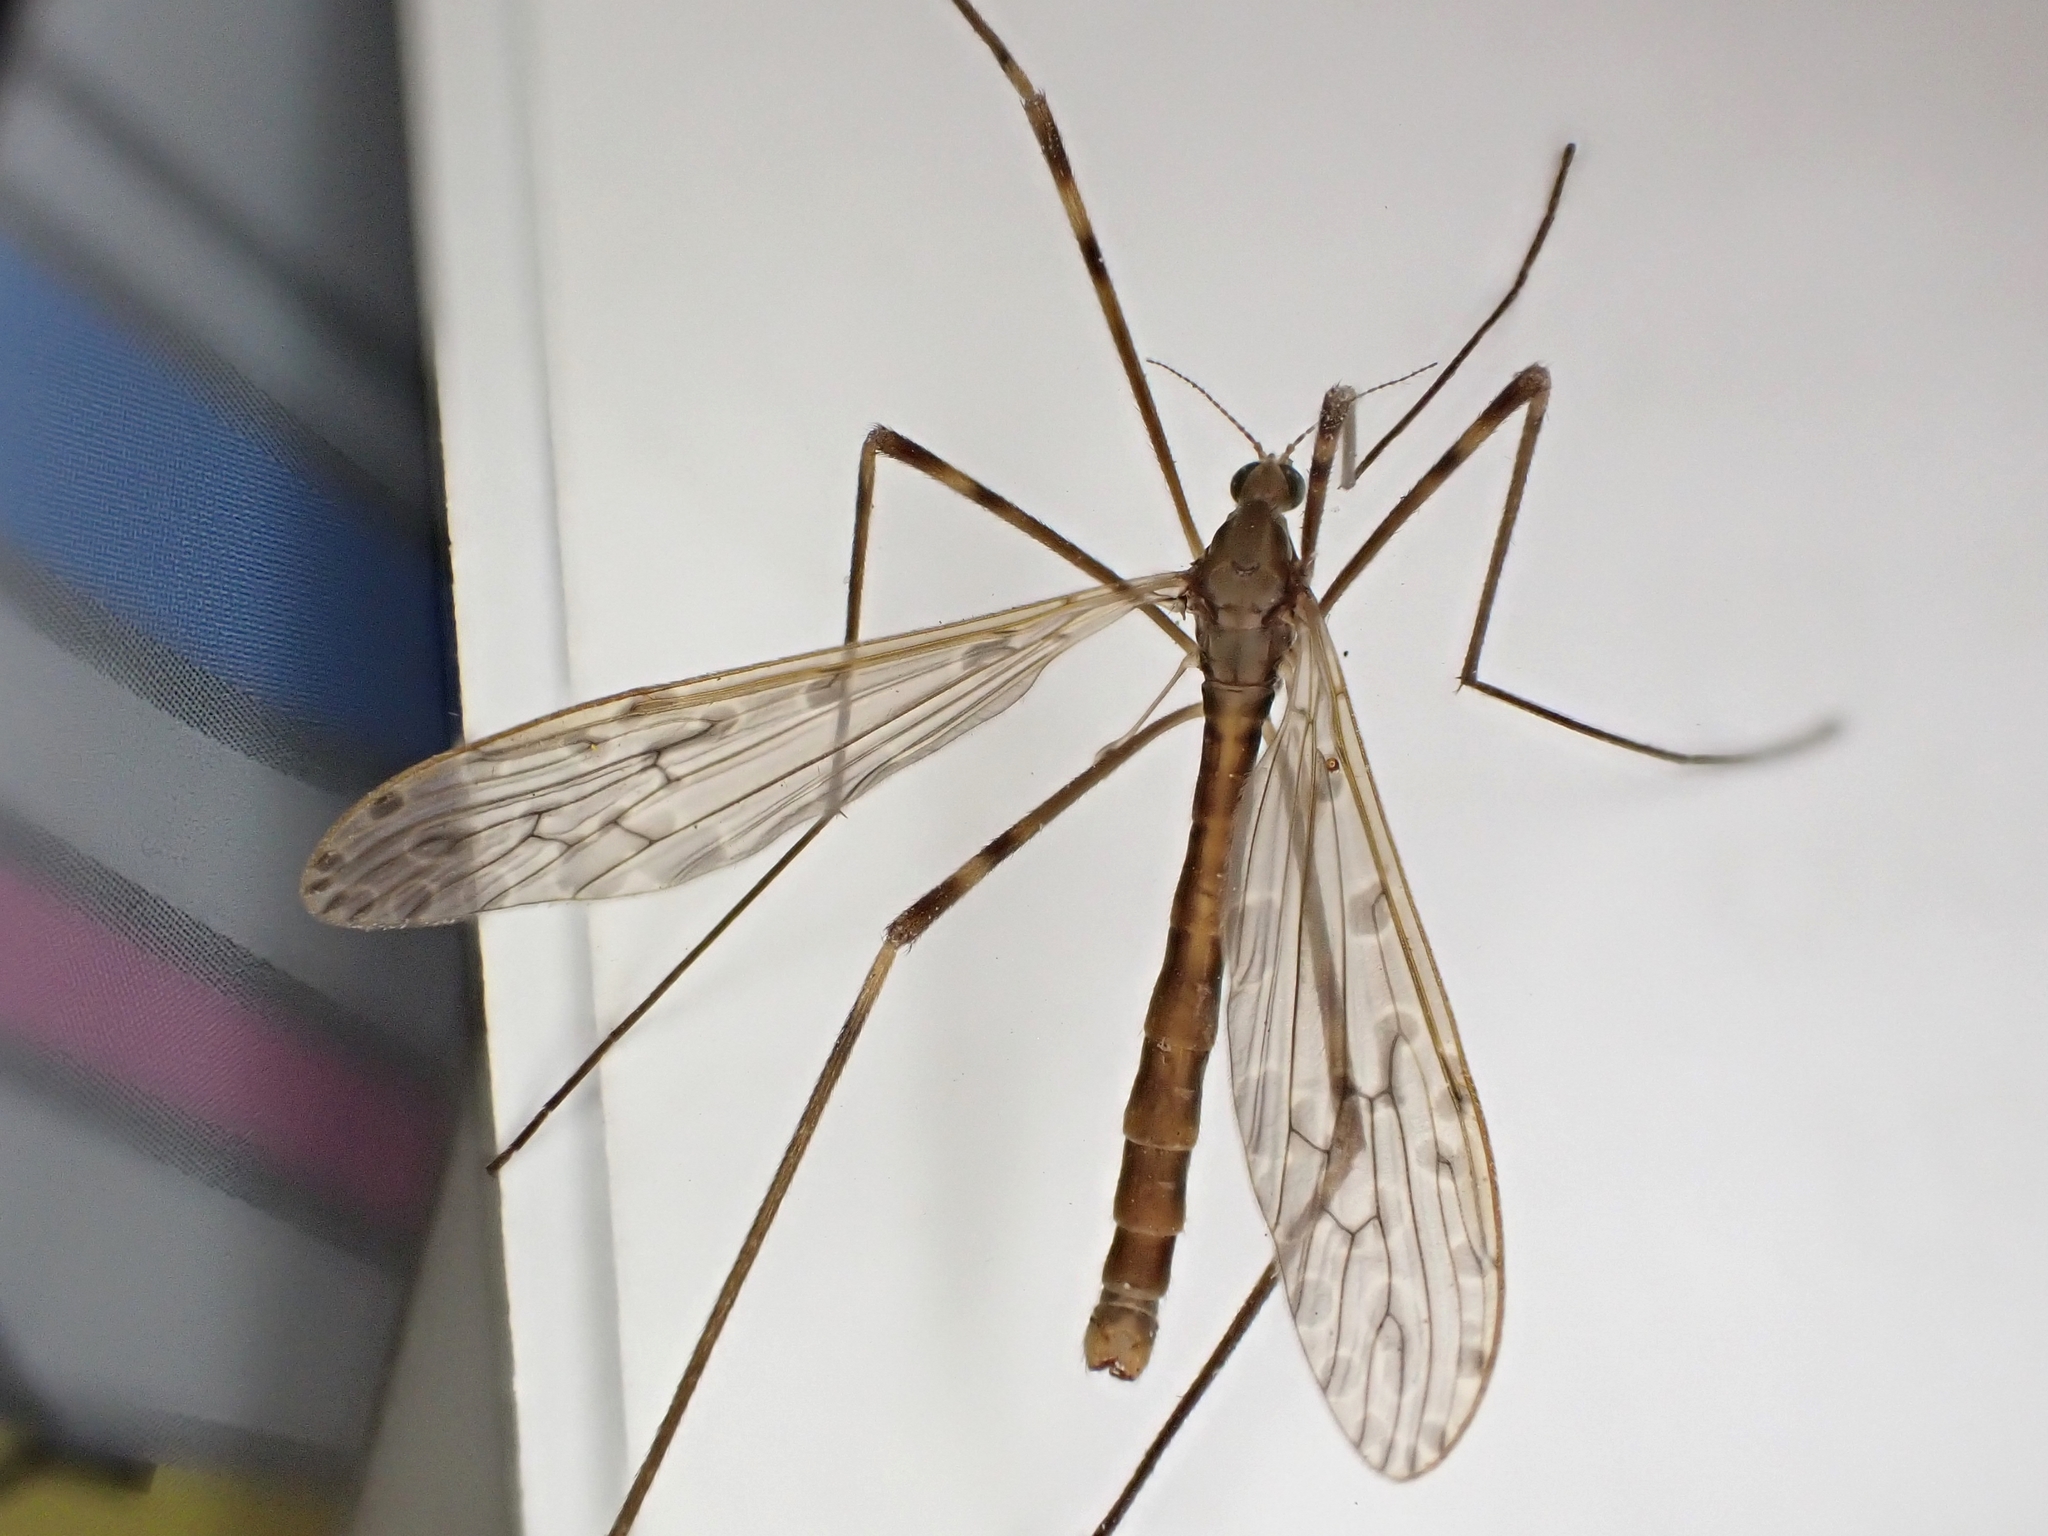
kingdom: Animalia
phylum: Arthropoda
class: Insecta
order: Diptera
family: Limoniidae
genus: Austrolimnophila
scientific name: Austrolimnophila crassipes
